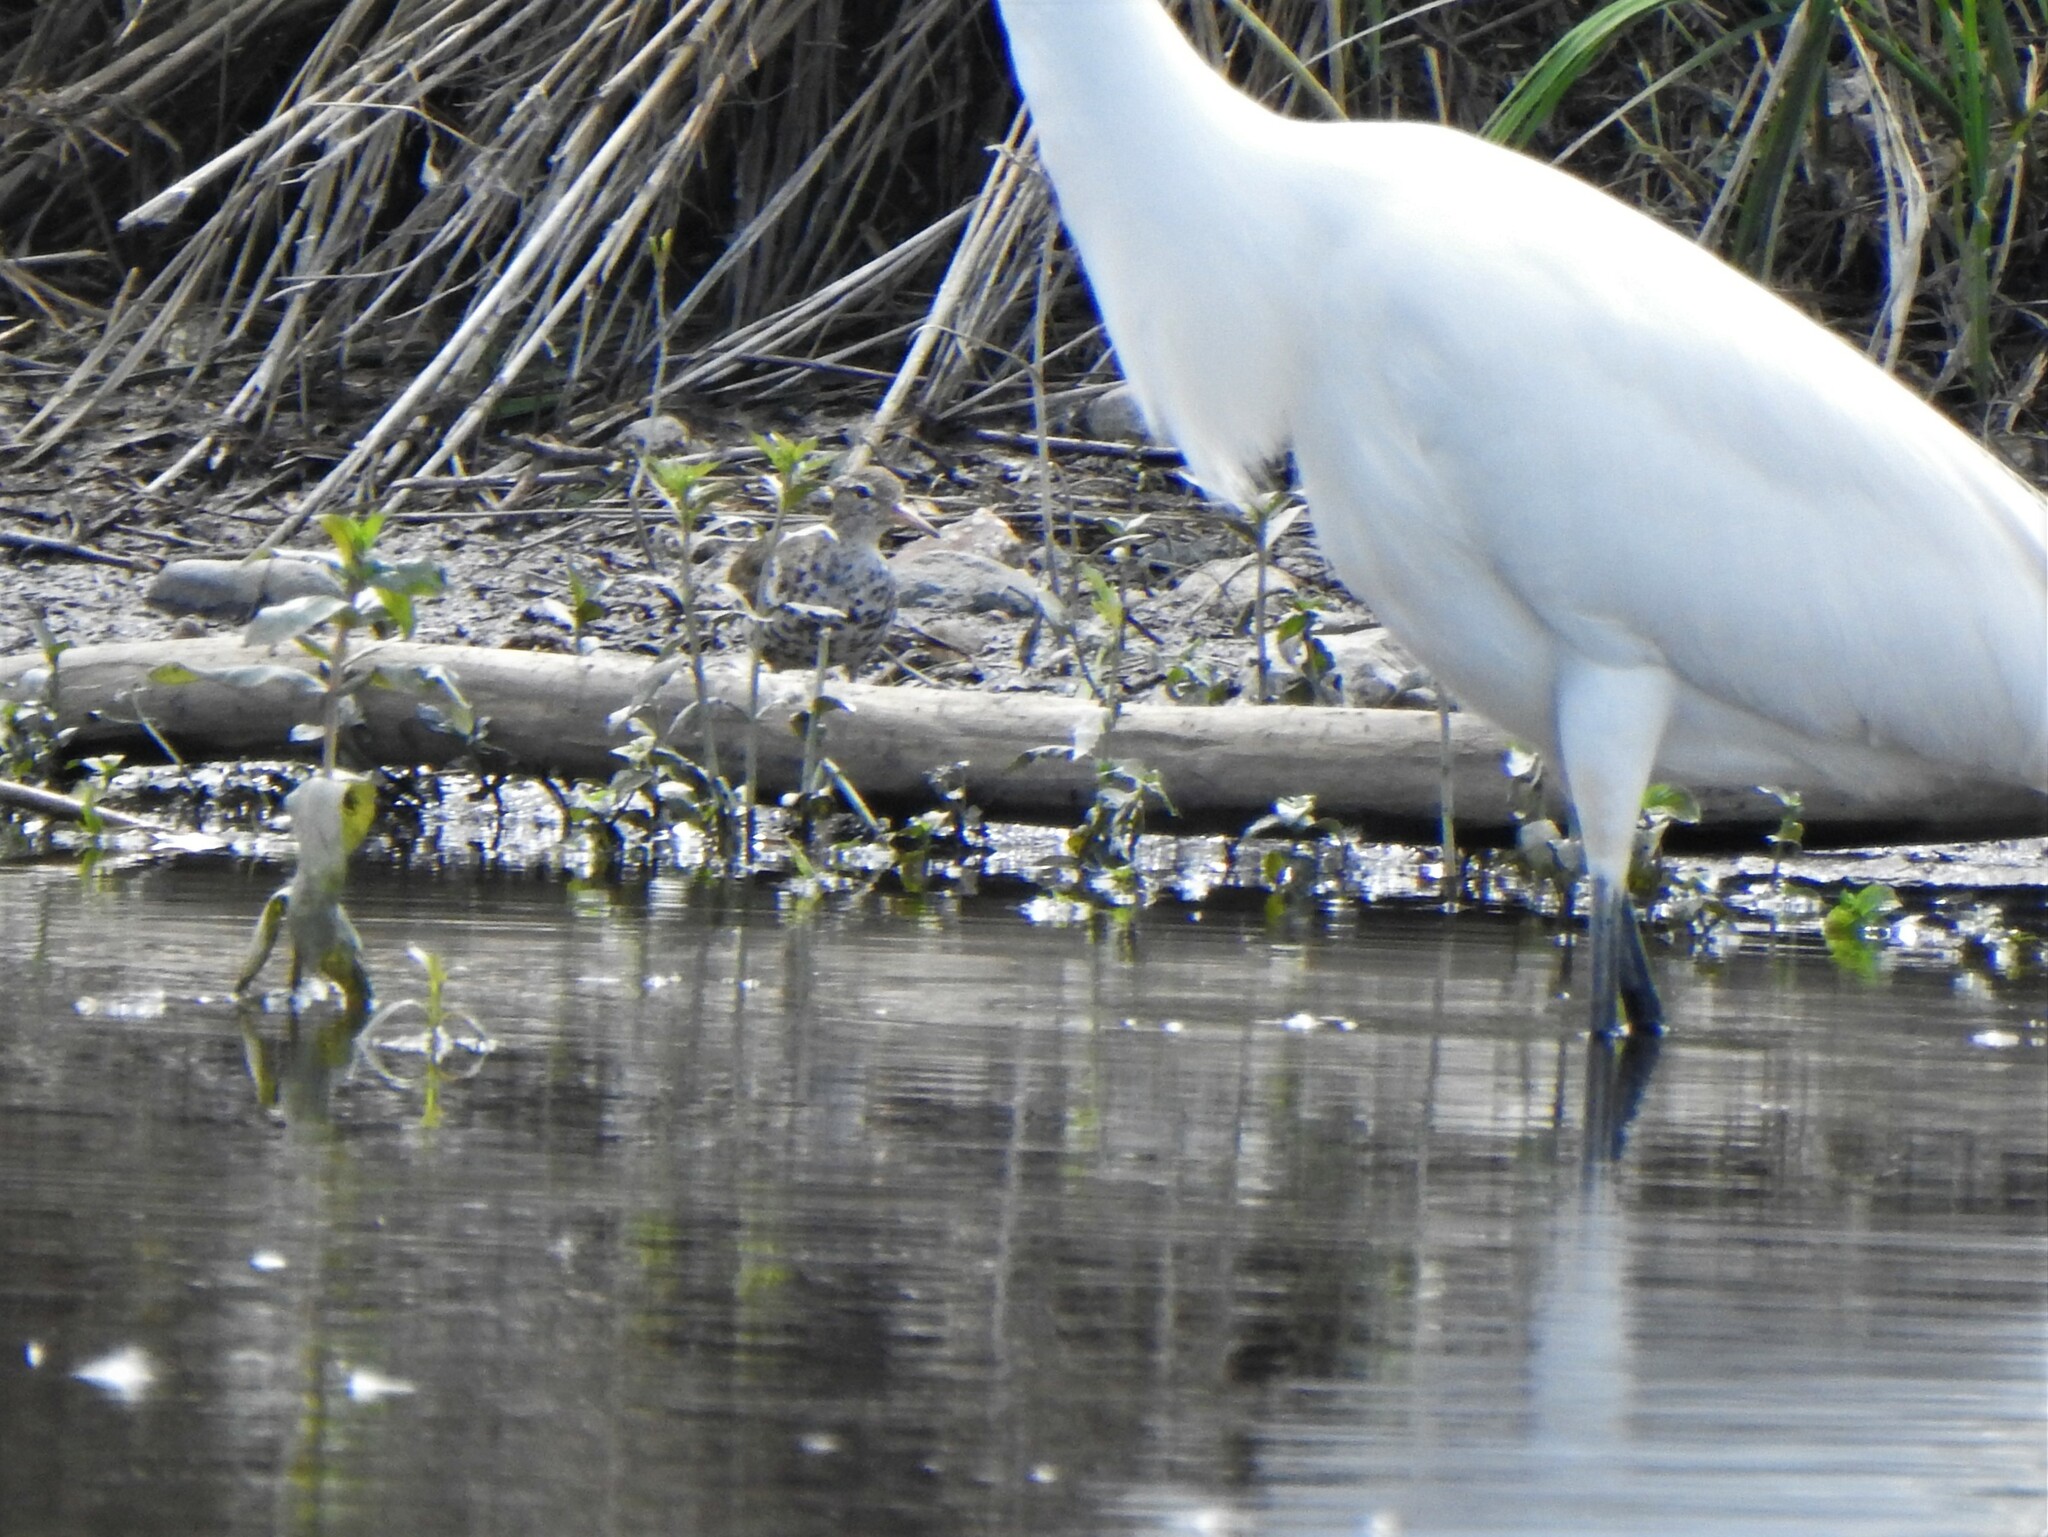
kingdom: Animalia
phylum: Chordata
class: Aves
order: Charadriiformes
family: Scolopacidae
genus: Actitis
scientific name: Actitis macularius
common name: Spotted sandpiper
